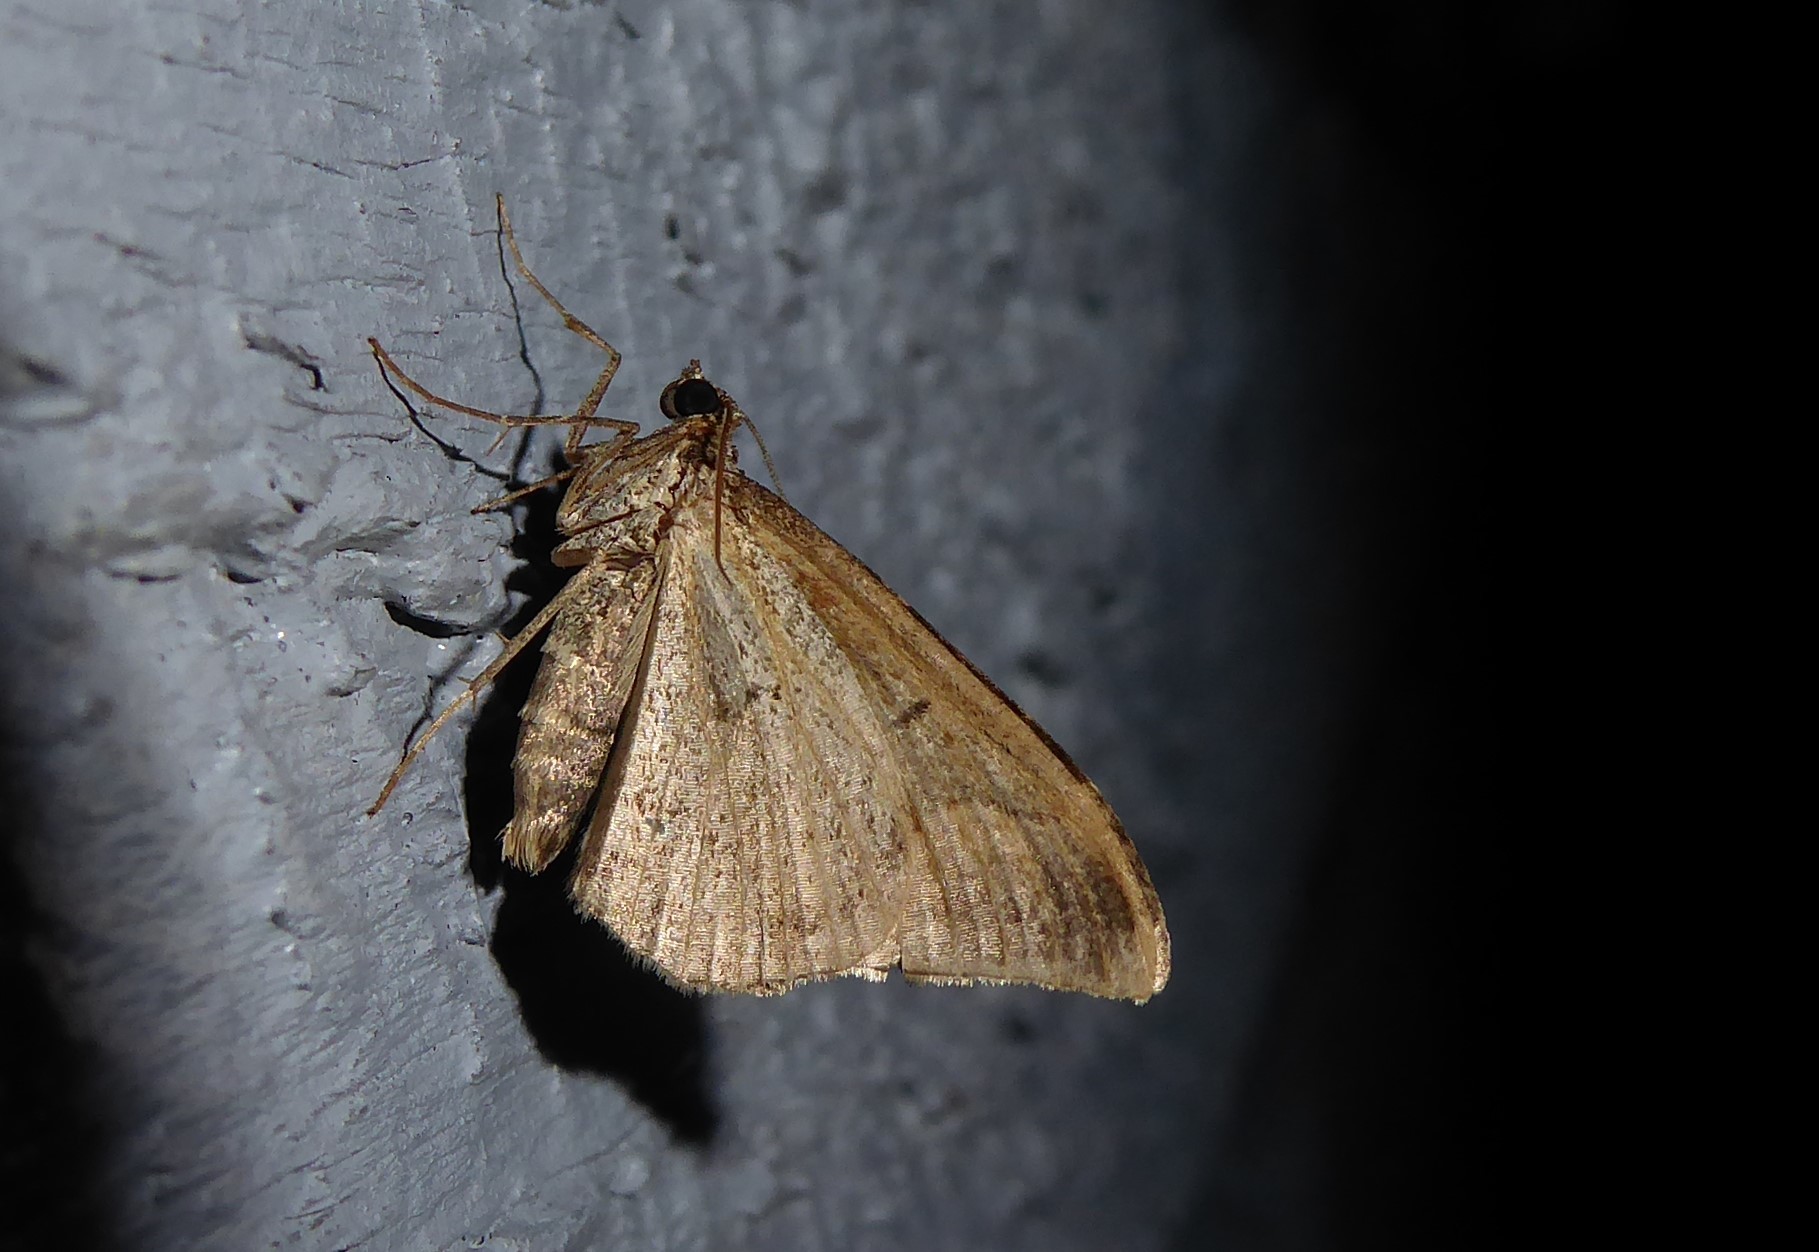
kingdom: Animalia
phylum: Arthropoda
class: Insecta
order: Lepidoptera
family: Geometridae
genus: Hydriomena
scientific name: Hydriomena deltoidata
